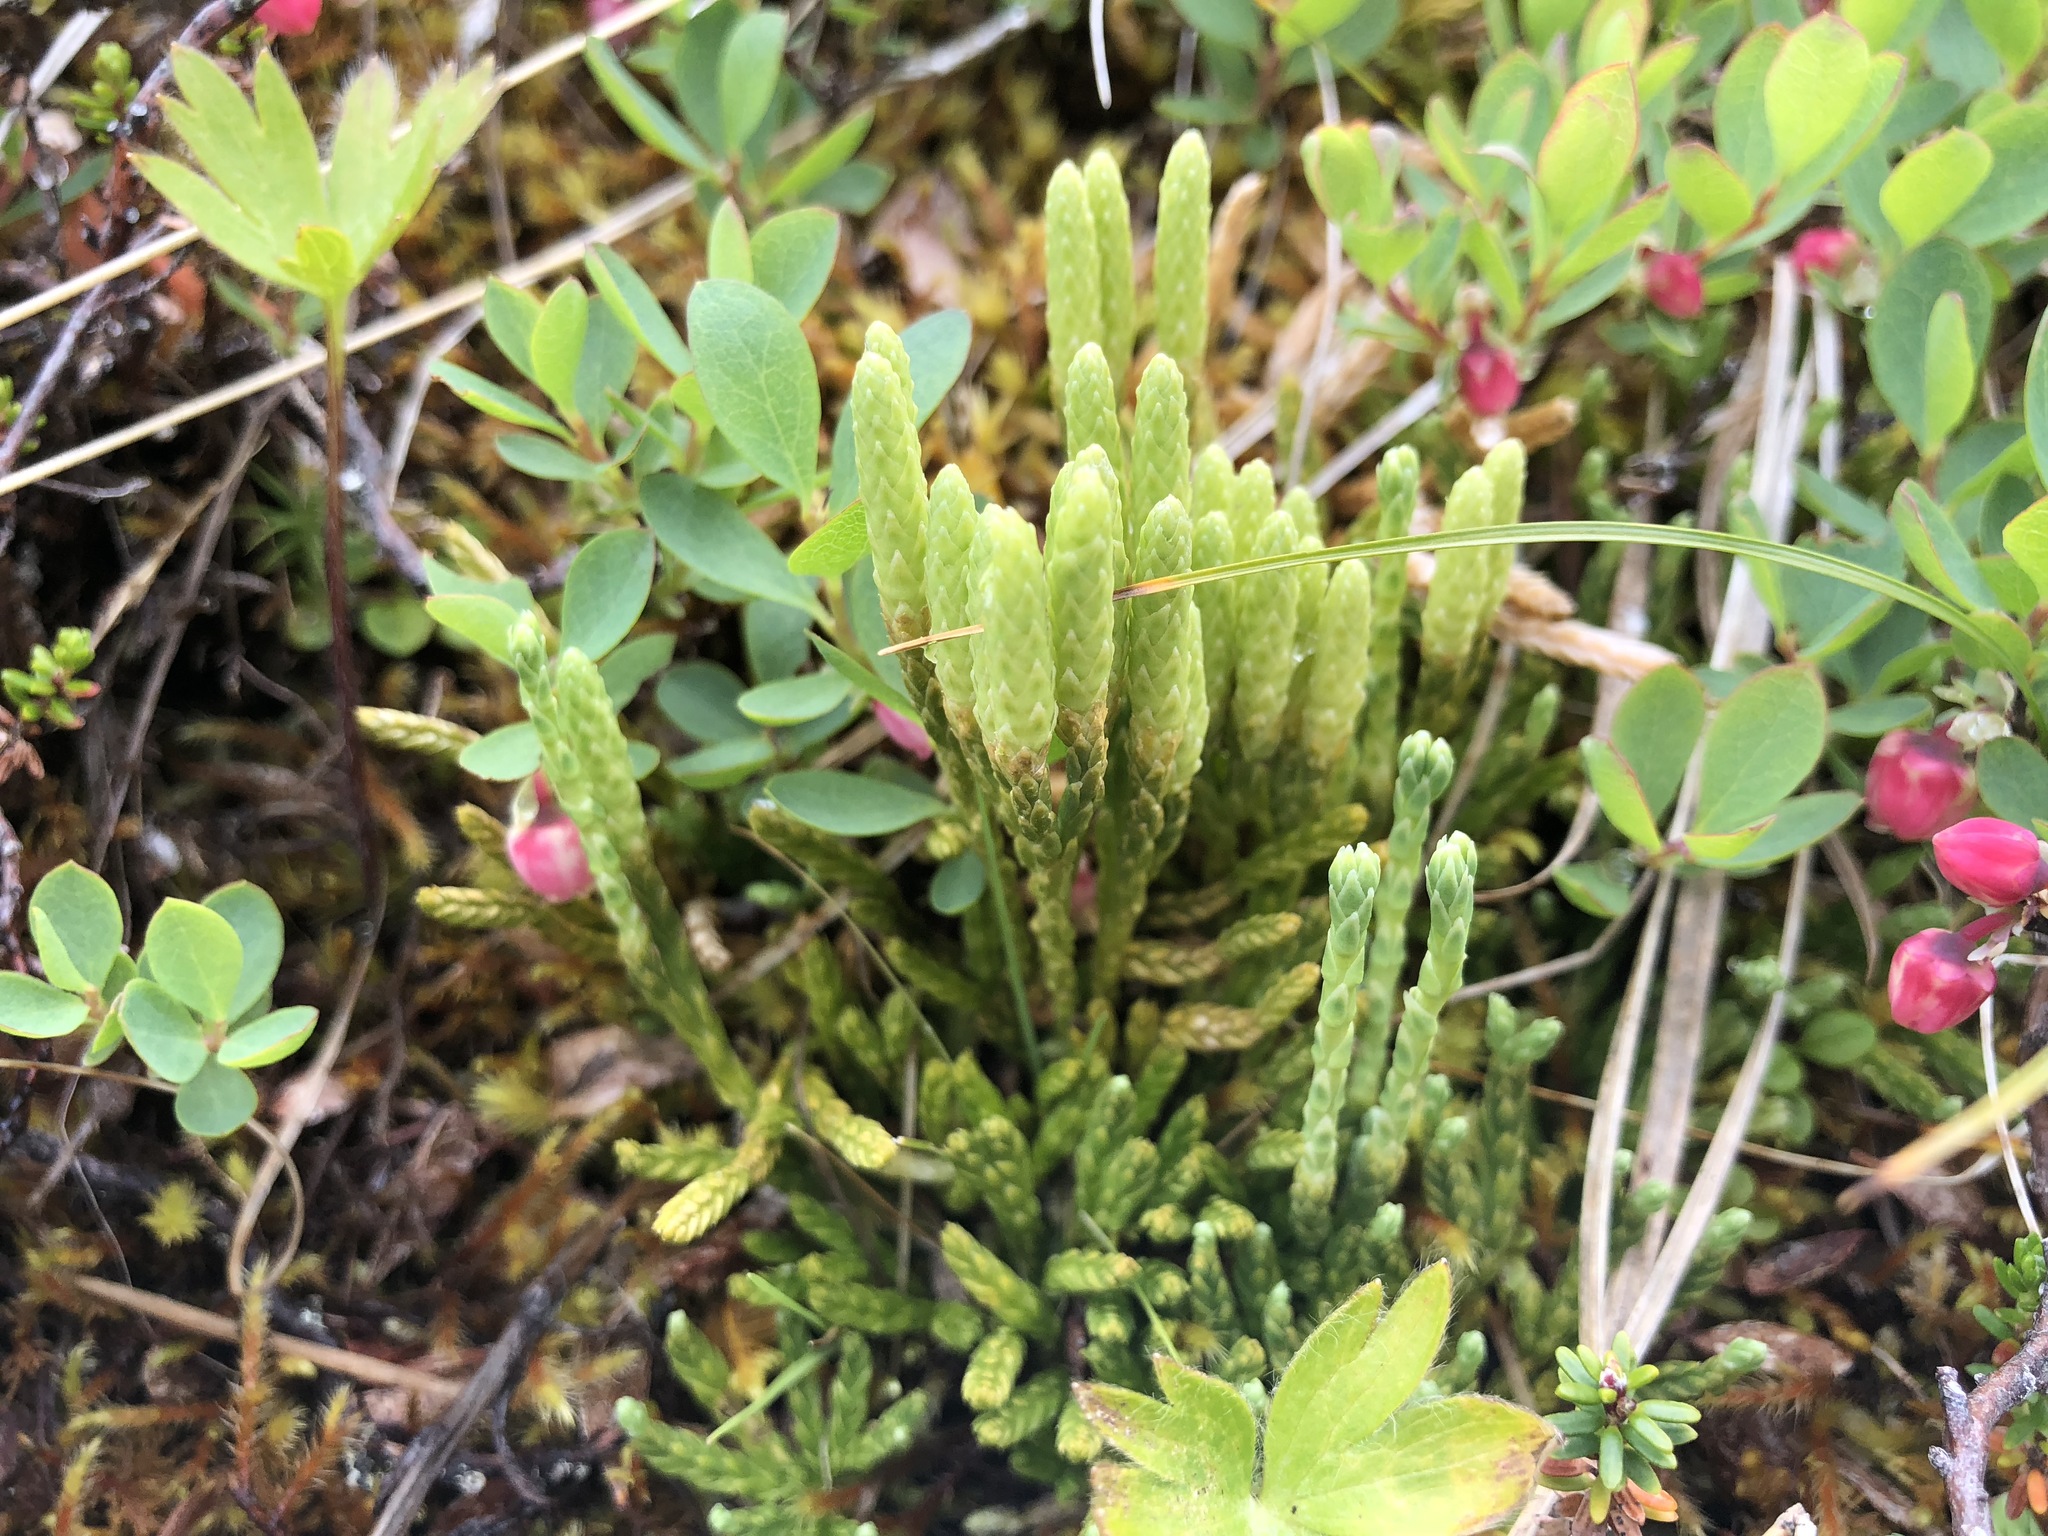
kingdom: Plantae
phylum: Tracheophyta
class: Lycopodiopsida
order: Lycopodiales
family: Lycopodiaceae
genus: Diphasiastrum
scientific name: Diphasiastrum alpinum
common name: Alpine clubmoss
